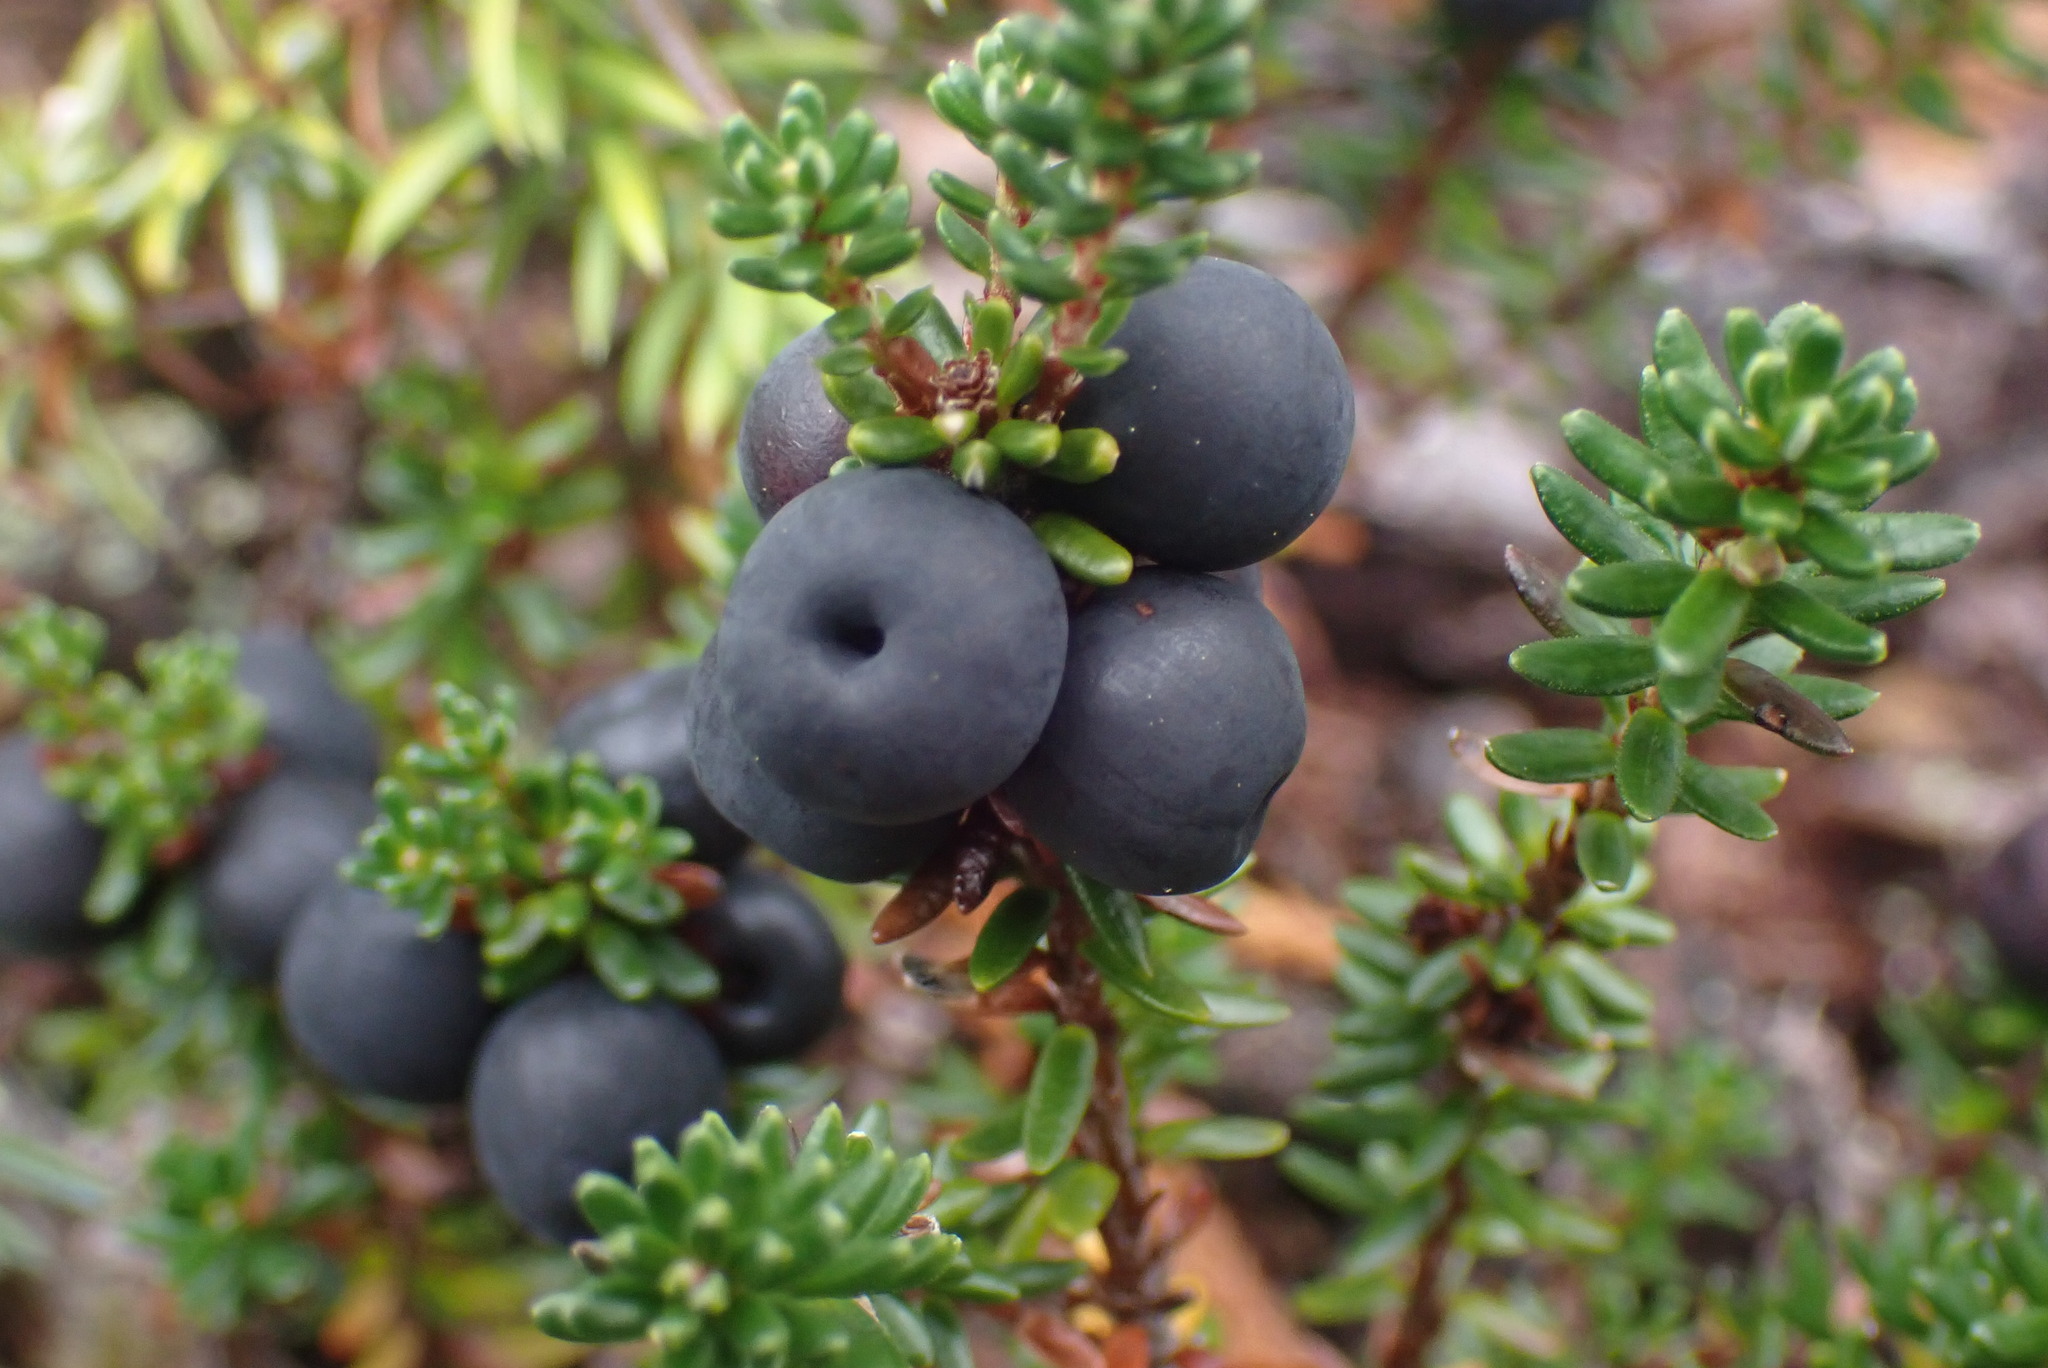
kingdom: Plantae
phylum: Tracheophyta
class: Magnoliopsida
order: Ericales
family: Ericaceae
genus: Empetrum
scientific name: Empetrum nigrum
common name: Black crowberry
